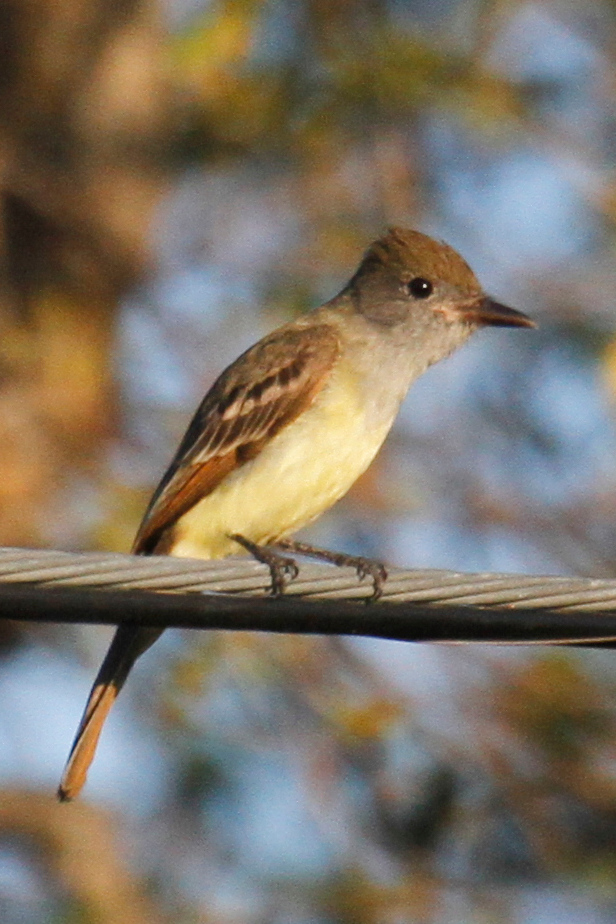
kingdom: Animalia
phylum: Chordata
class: Aves
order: Passeriformes
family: Tyrannidae
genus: Myiarchus
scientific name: Myiarchus tyrannulus
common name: Brown-crested flycatcher
